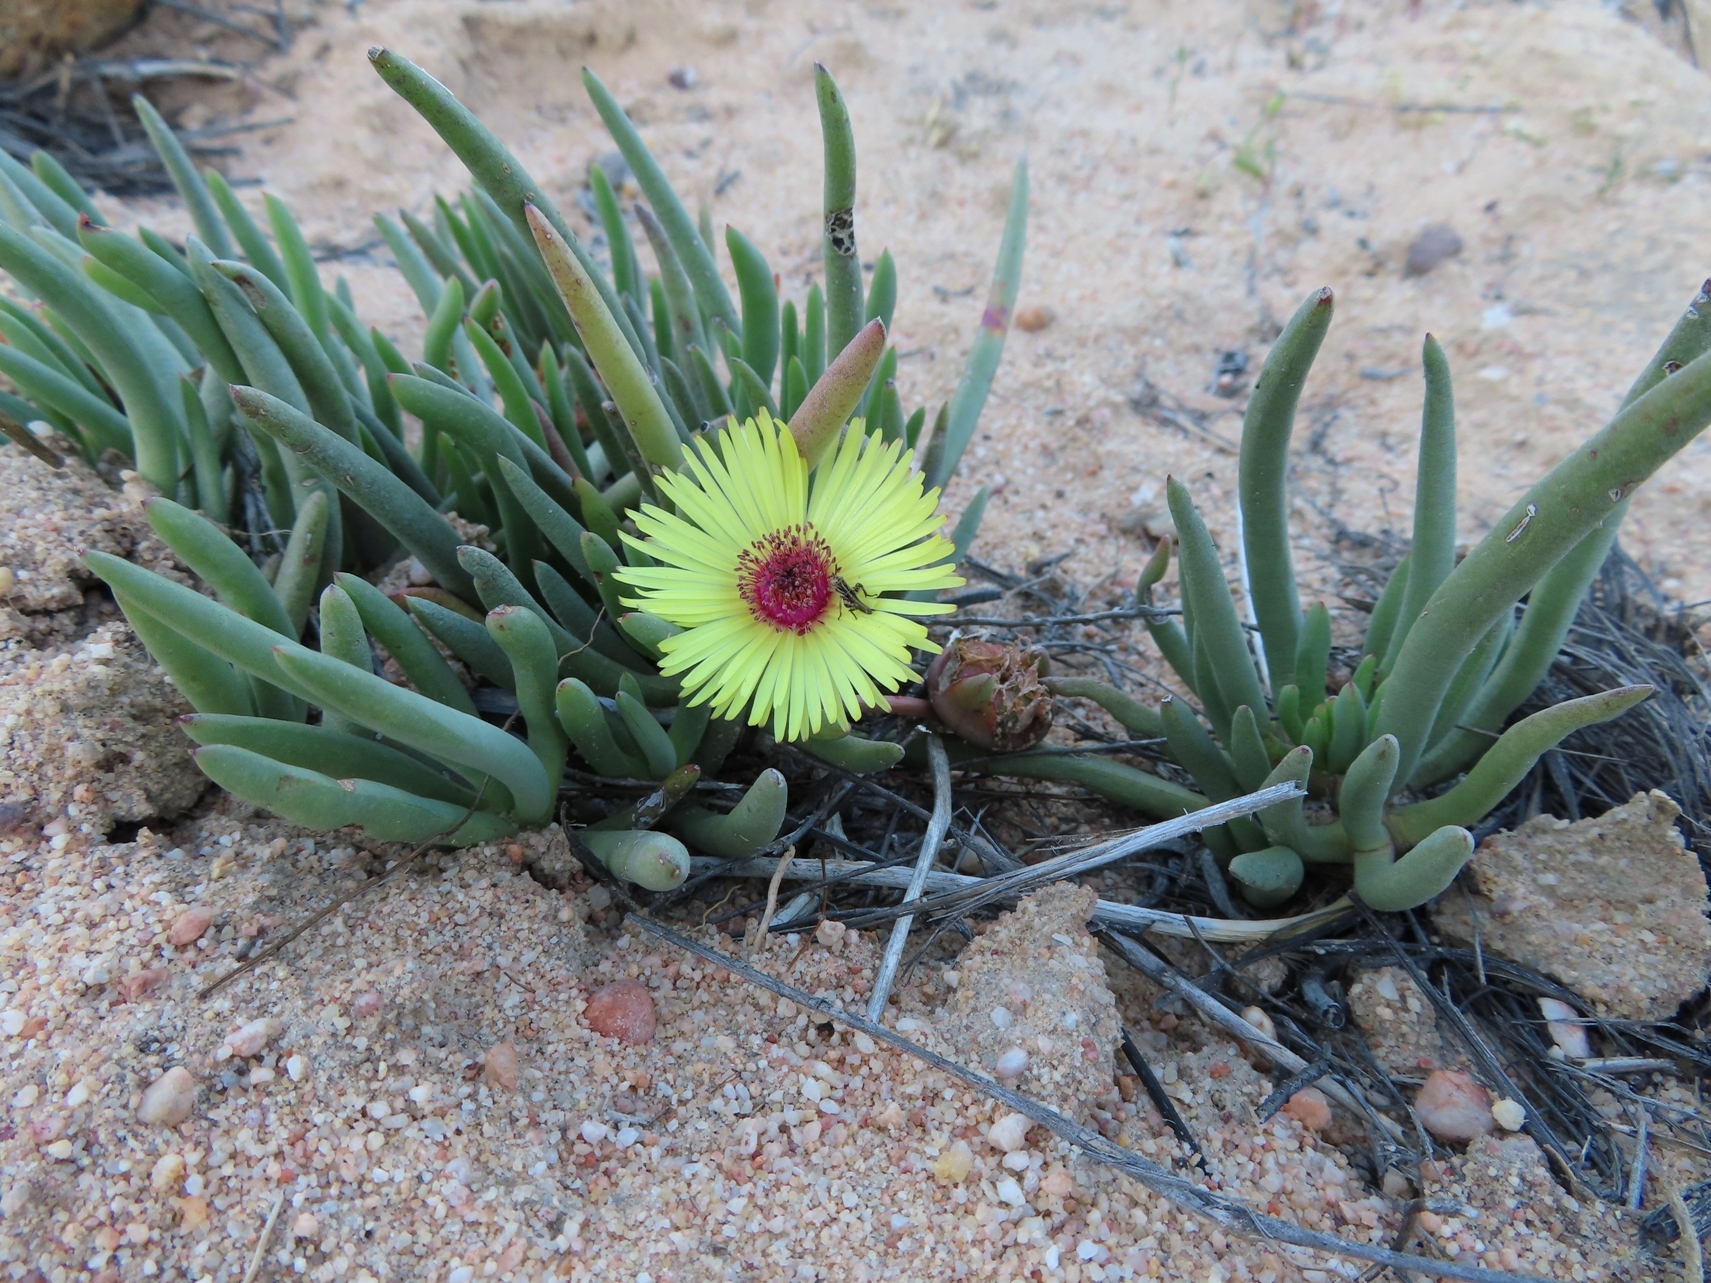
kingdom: Plantae
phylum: Tracheophyta
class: Magnoliopsida
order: Caryophyllales
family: Aizoaceae
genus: Cephalophyllum
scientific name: Cephalophyllum tricolorum
